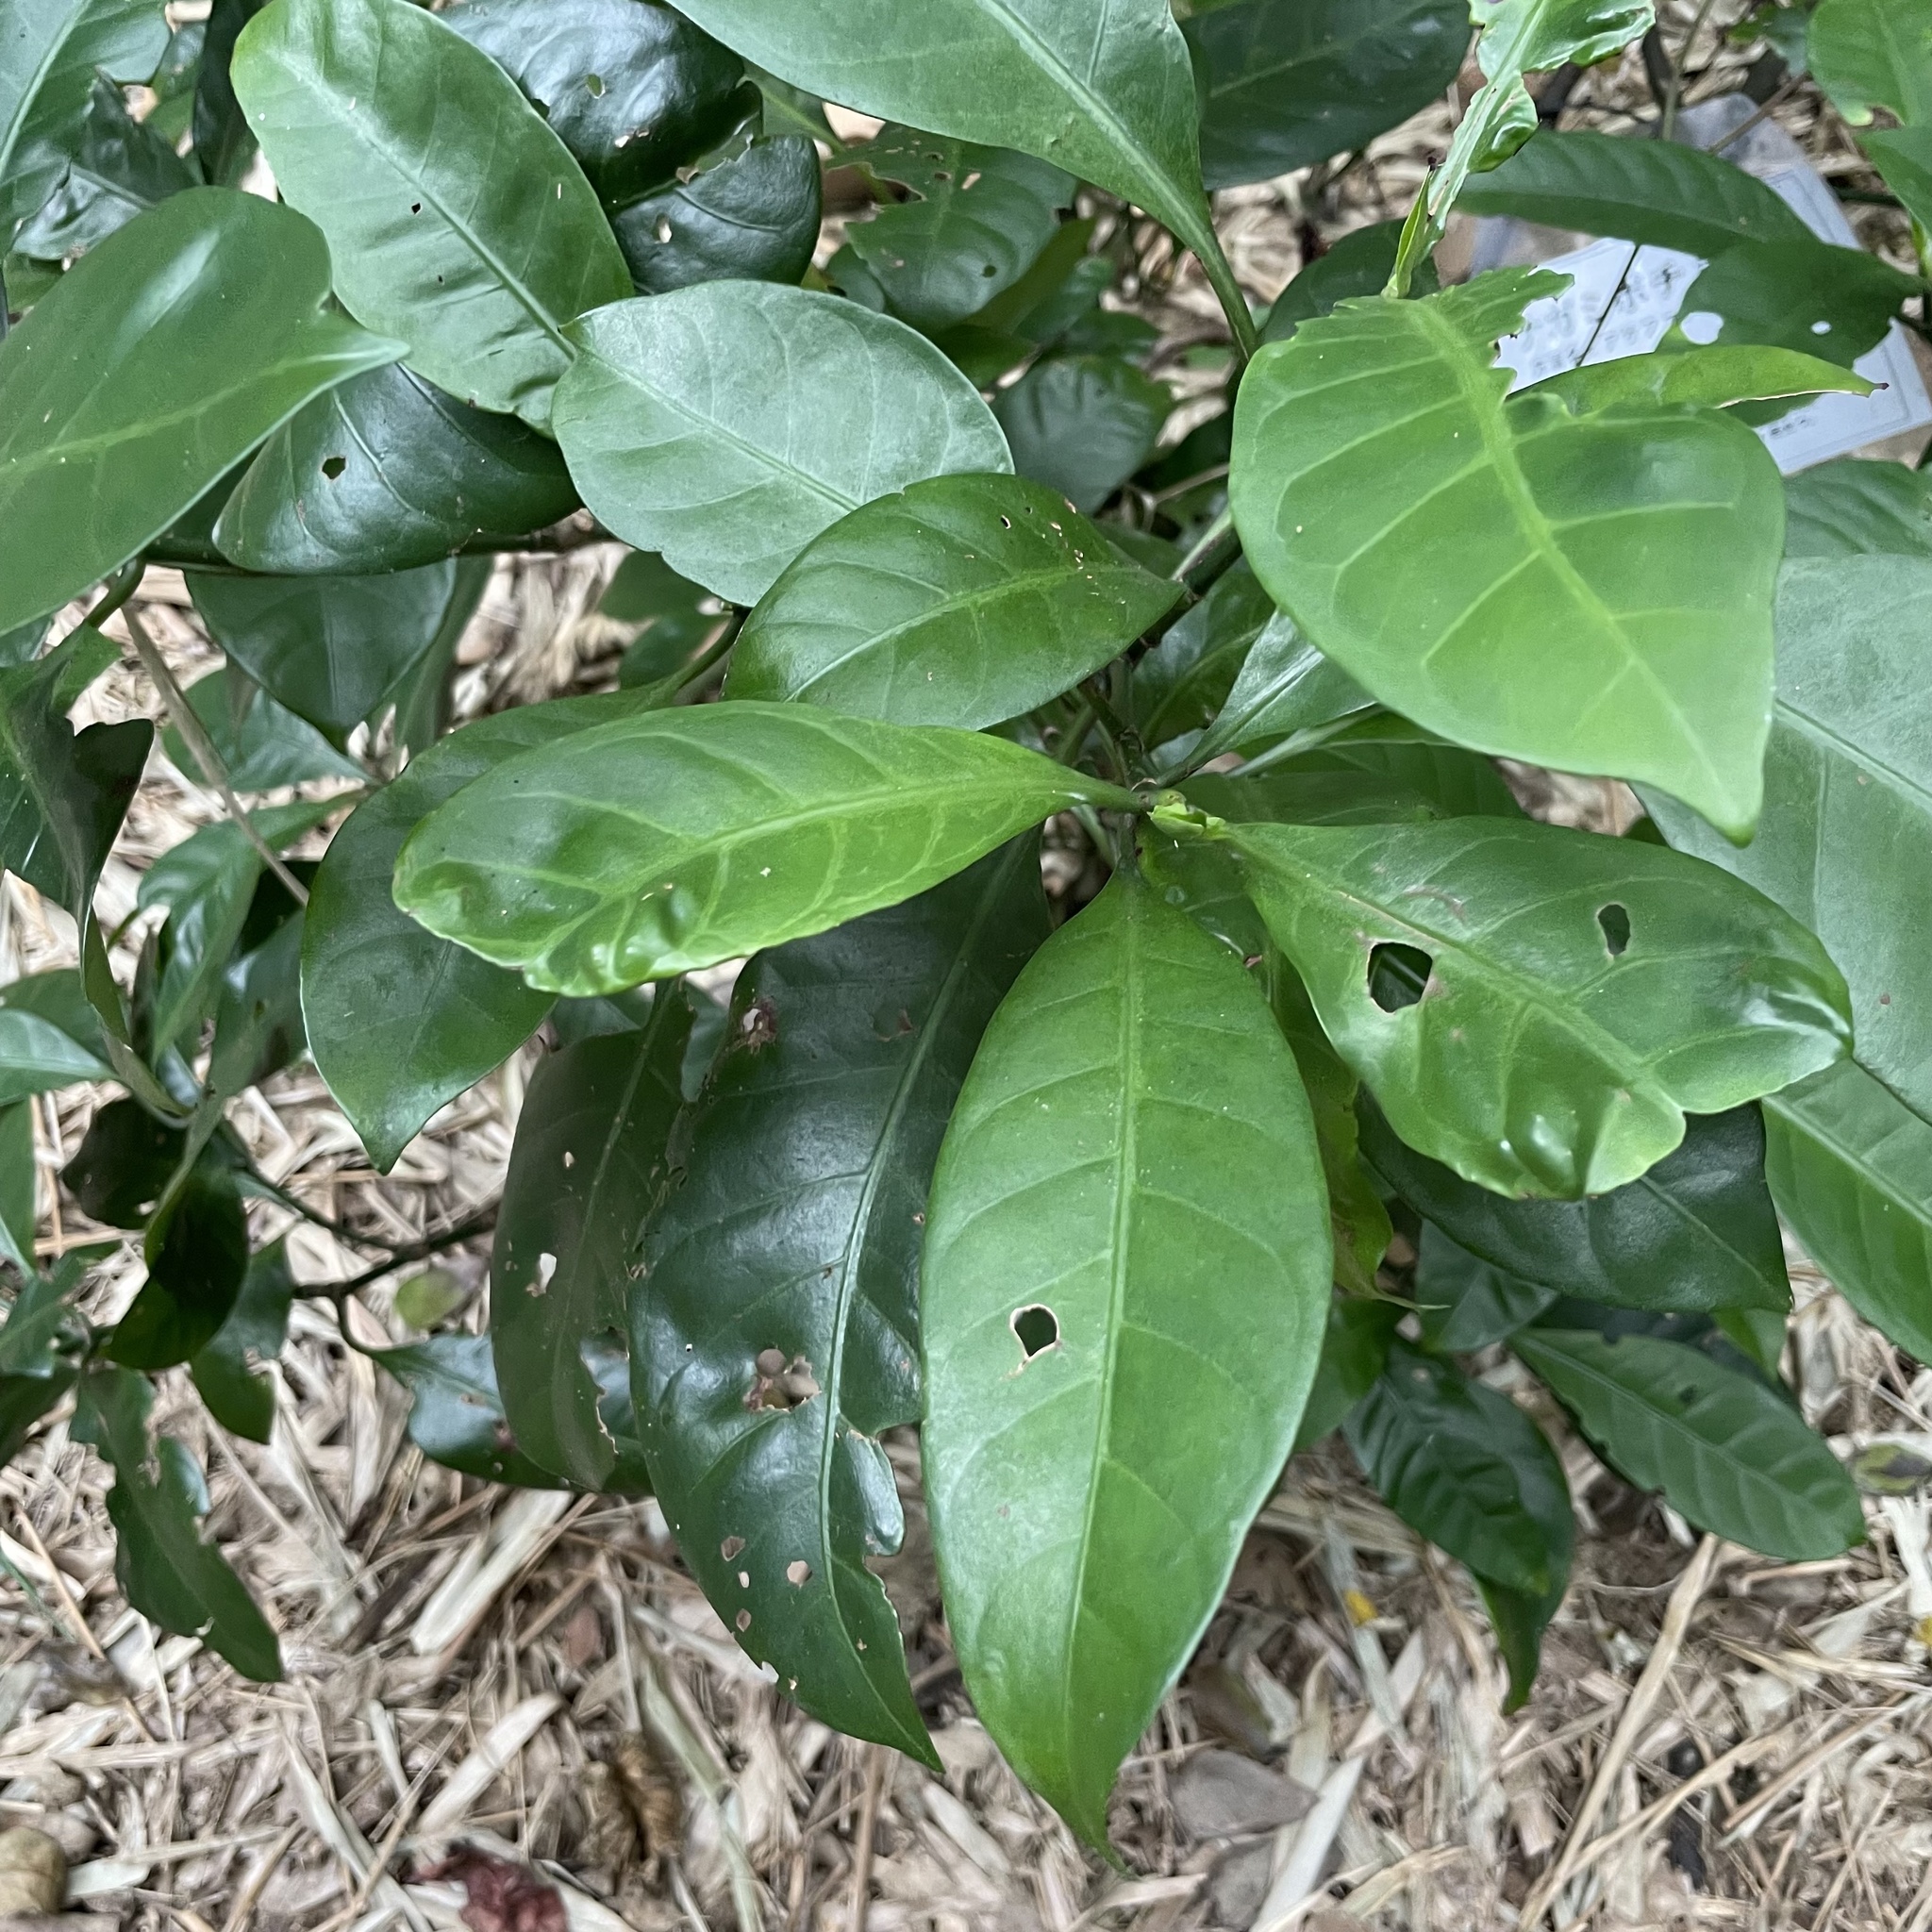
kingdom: Animalia
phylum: Arthropoda
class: Diplopoda
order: Polydesmida
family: Paradoxosomatidae
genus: Oxidus
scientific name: Oxidus riukiaria
